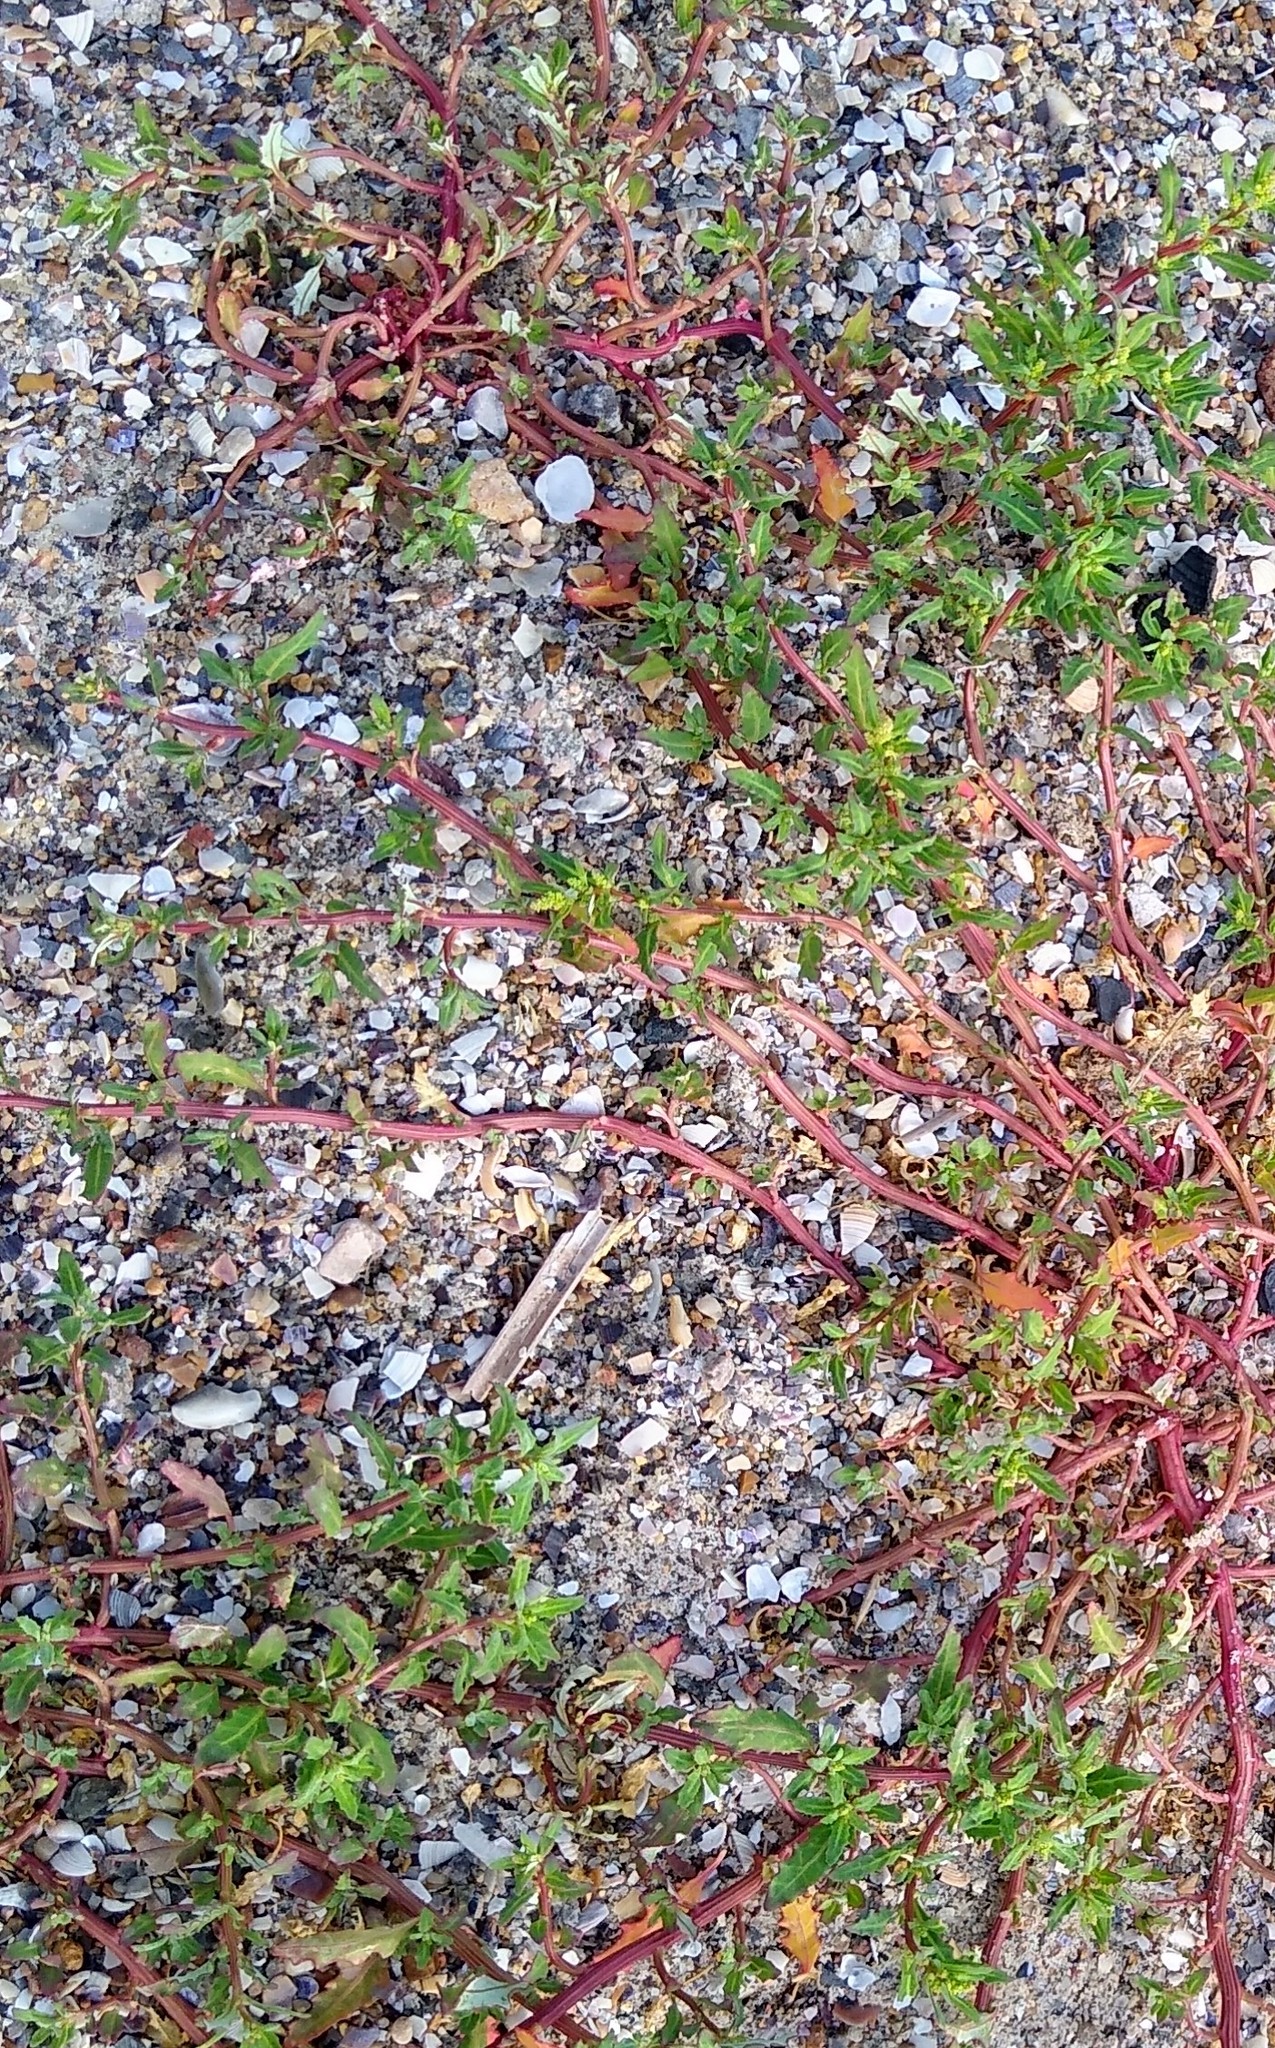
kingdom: Plantae
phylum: Tracheophyta
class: Magnoliopsida
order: Caryophyllales
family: Amaranthaceae
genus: Oxybasis
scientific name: Oxybasis glauca
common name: Glaucous goosefoot
